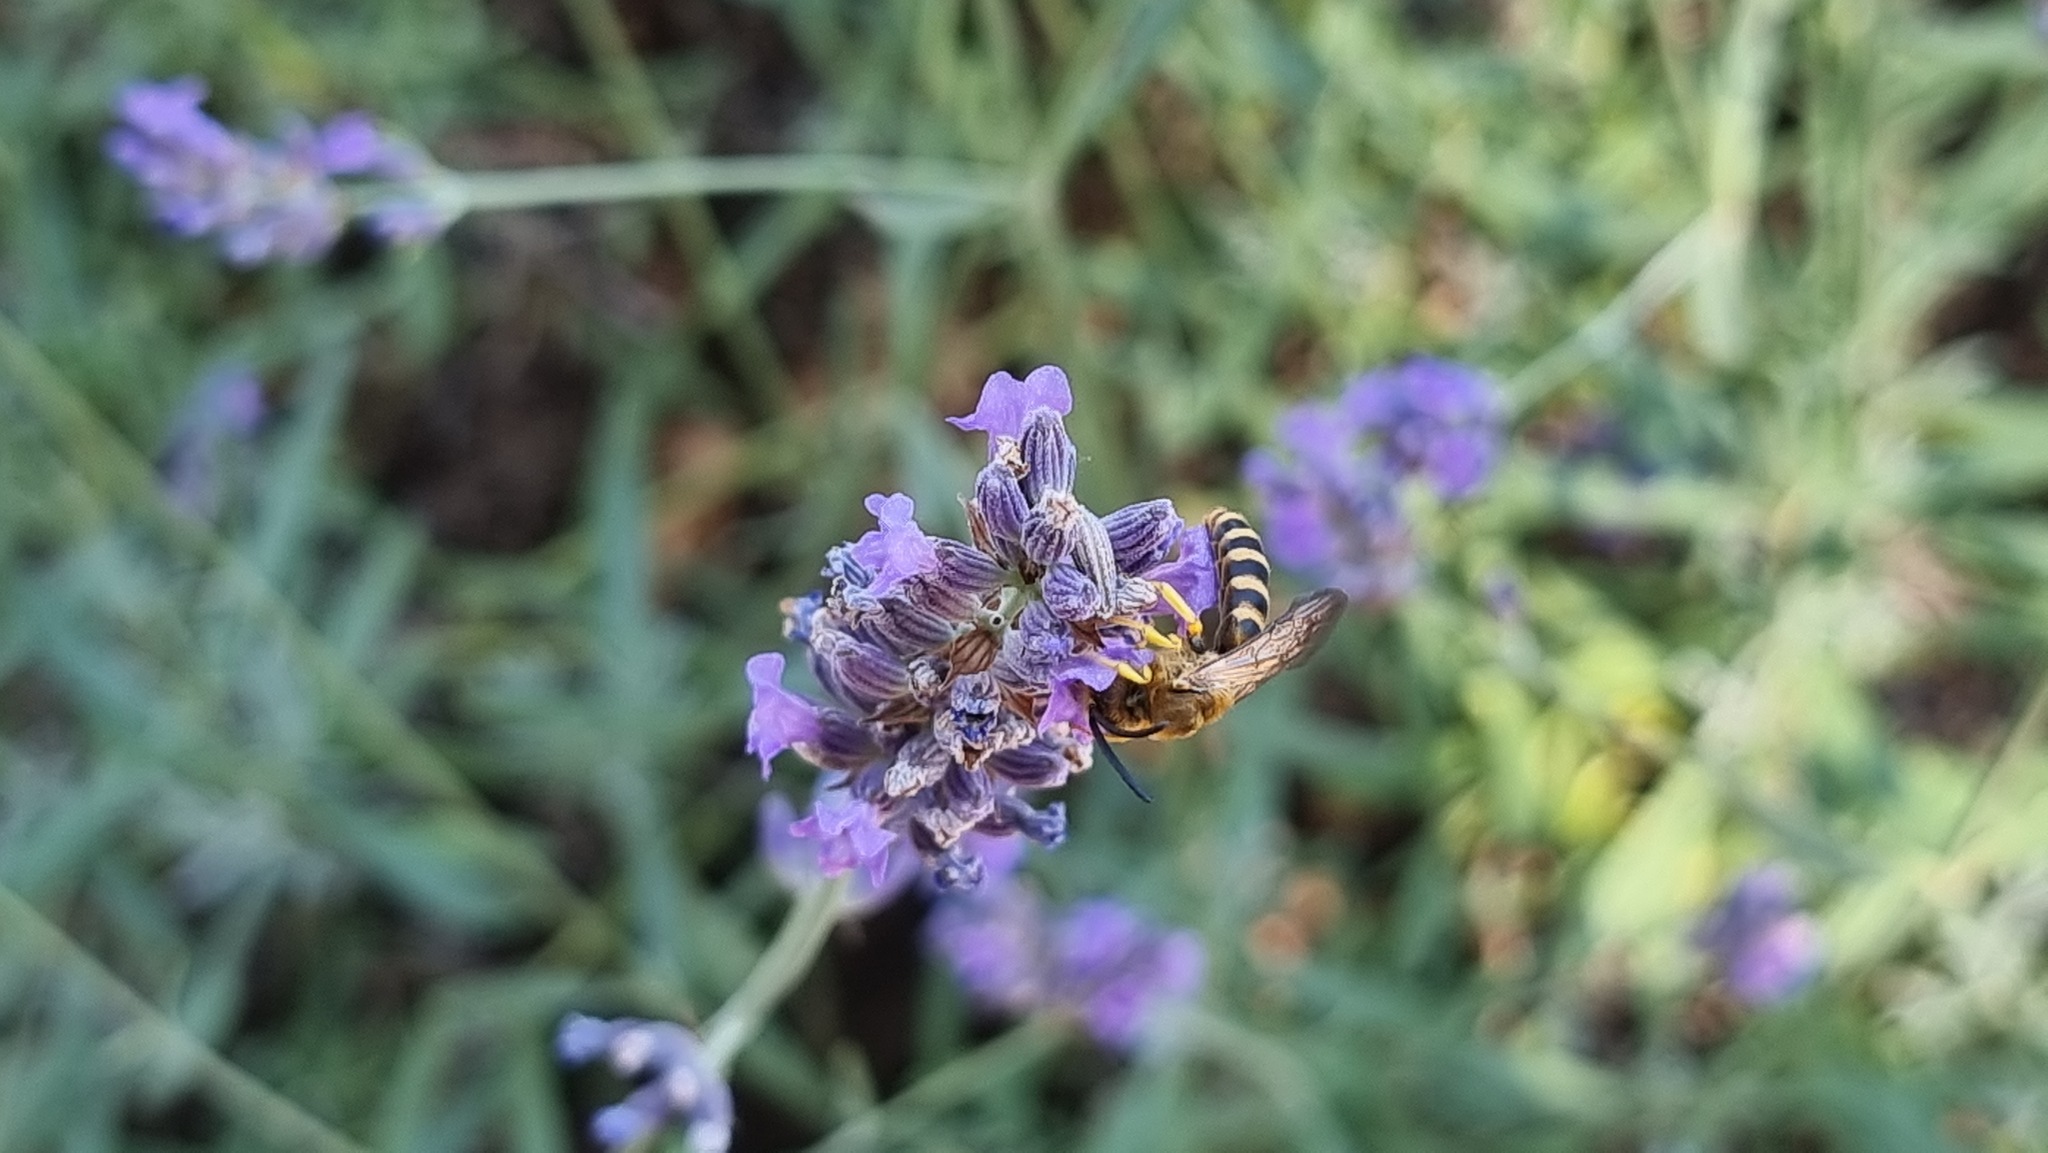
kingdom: Animalia
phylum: Arthropoda
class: Insecta
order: Hymenoptera
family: Halictidae
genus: Halictus
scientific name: Halictus scabiosae
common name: Great banded furrow bee
